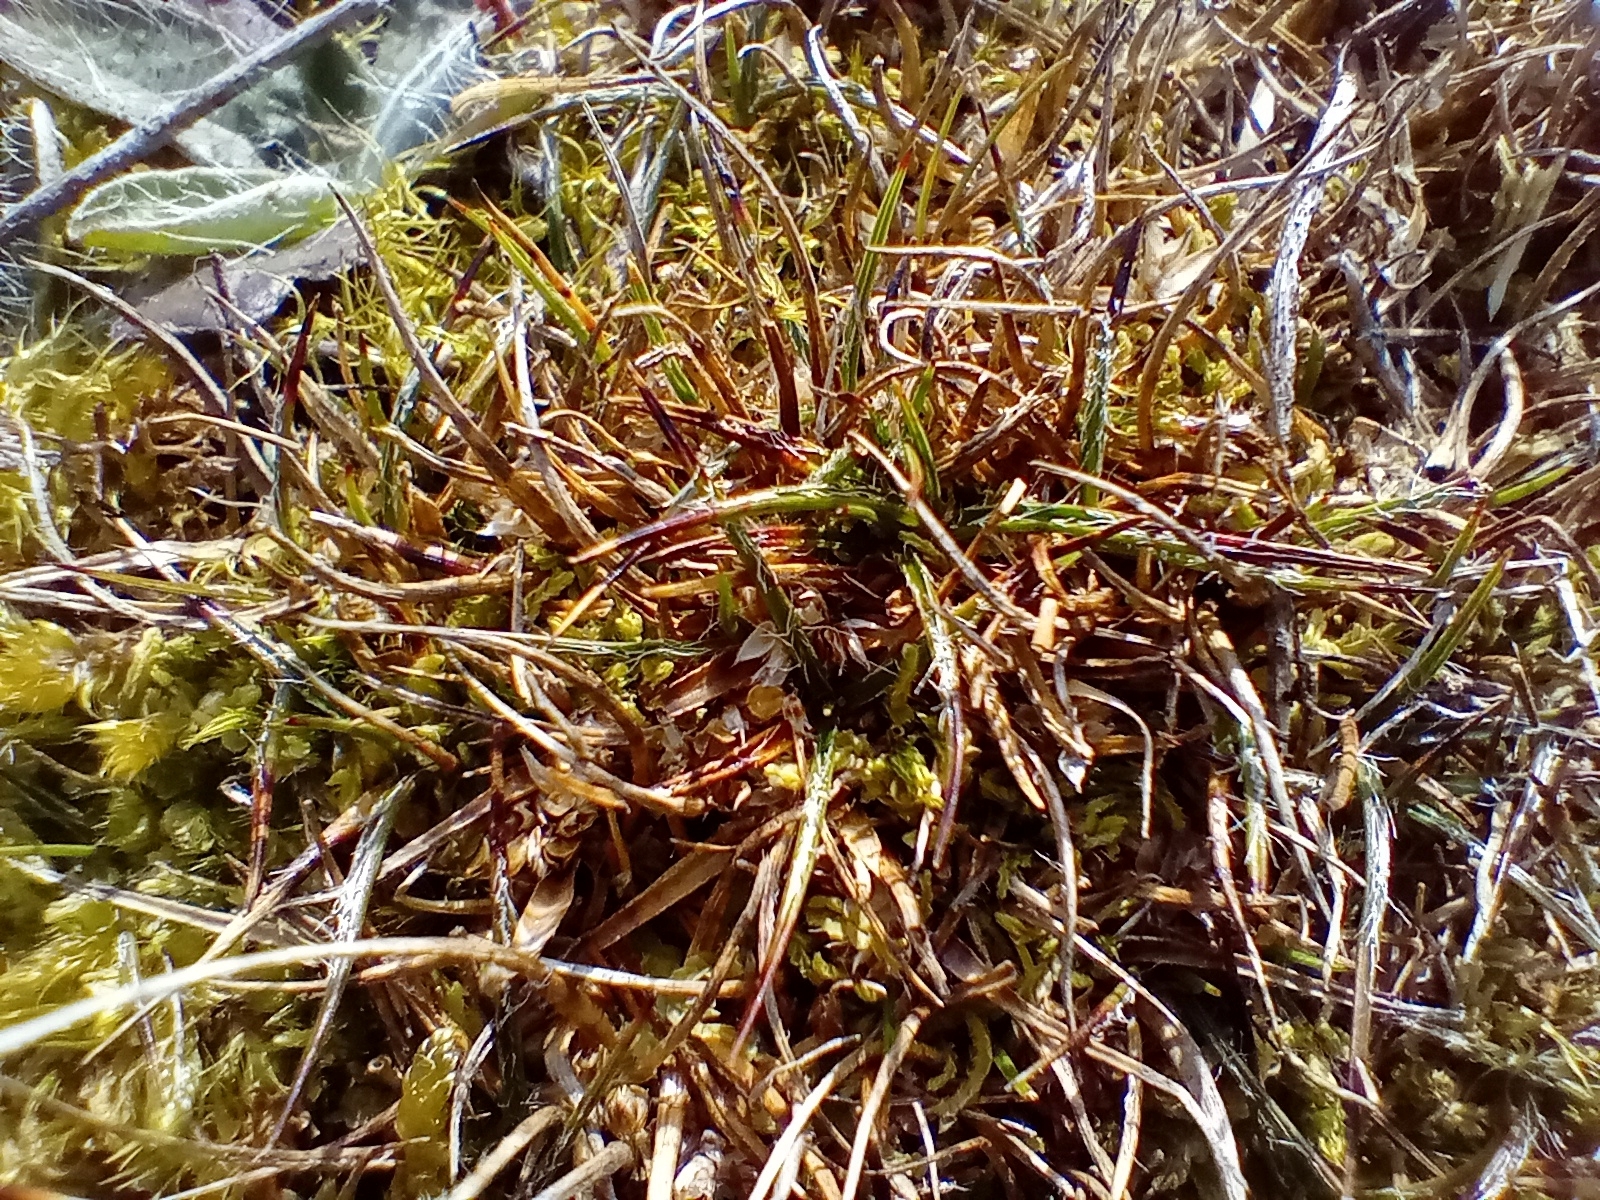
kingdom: Plantae
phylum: Tracheophyta
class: Liliopsida
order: Poales
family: Juncaceae
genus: Luzula
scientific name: Luzula celata
